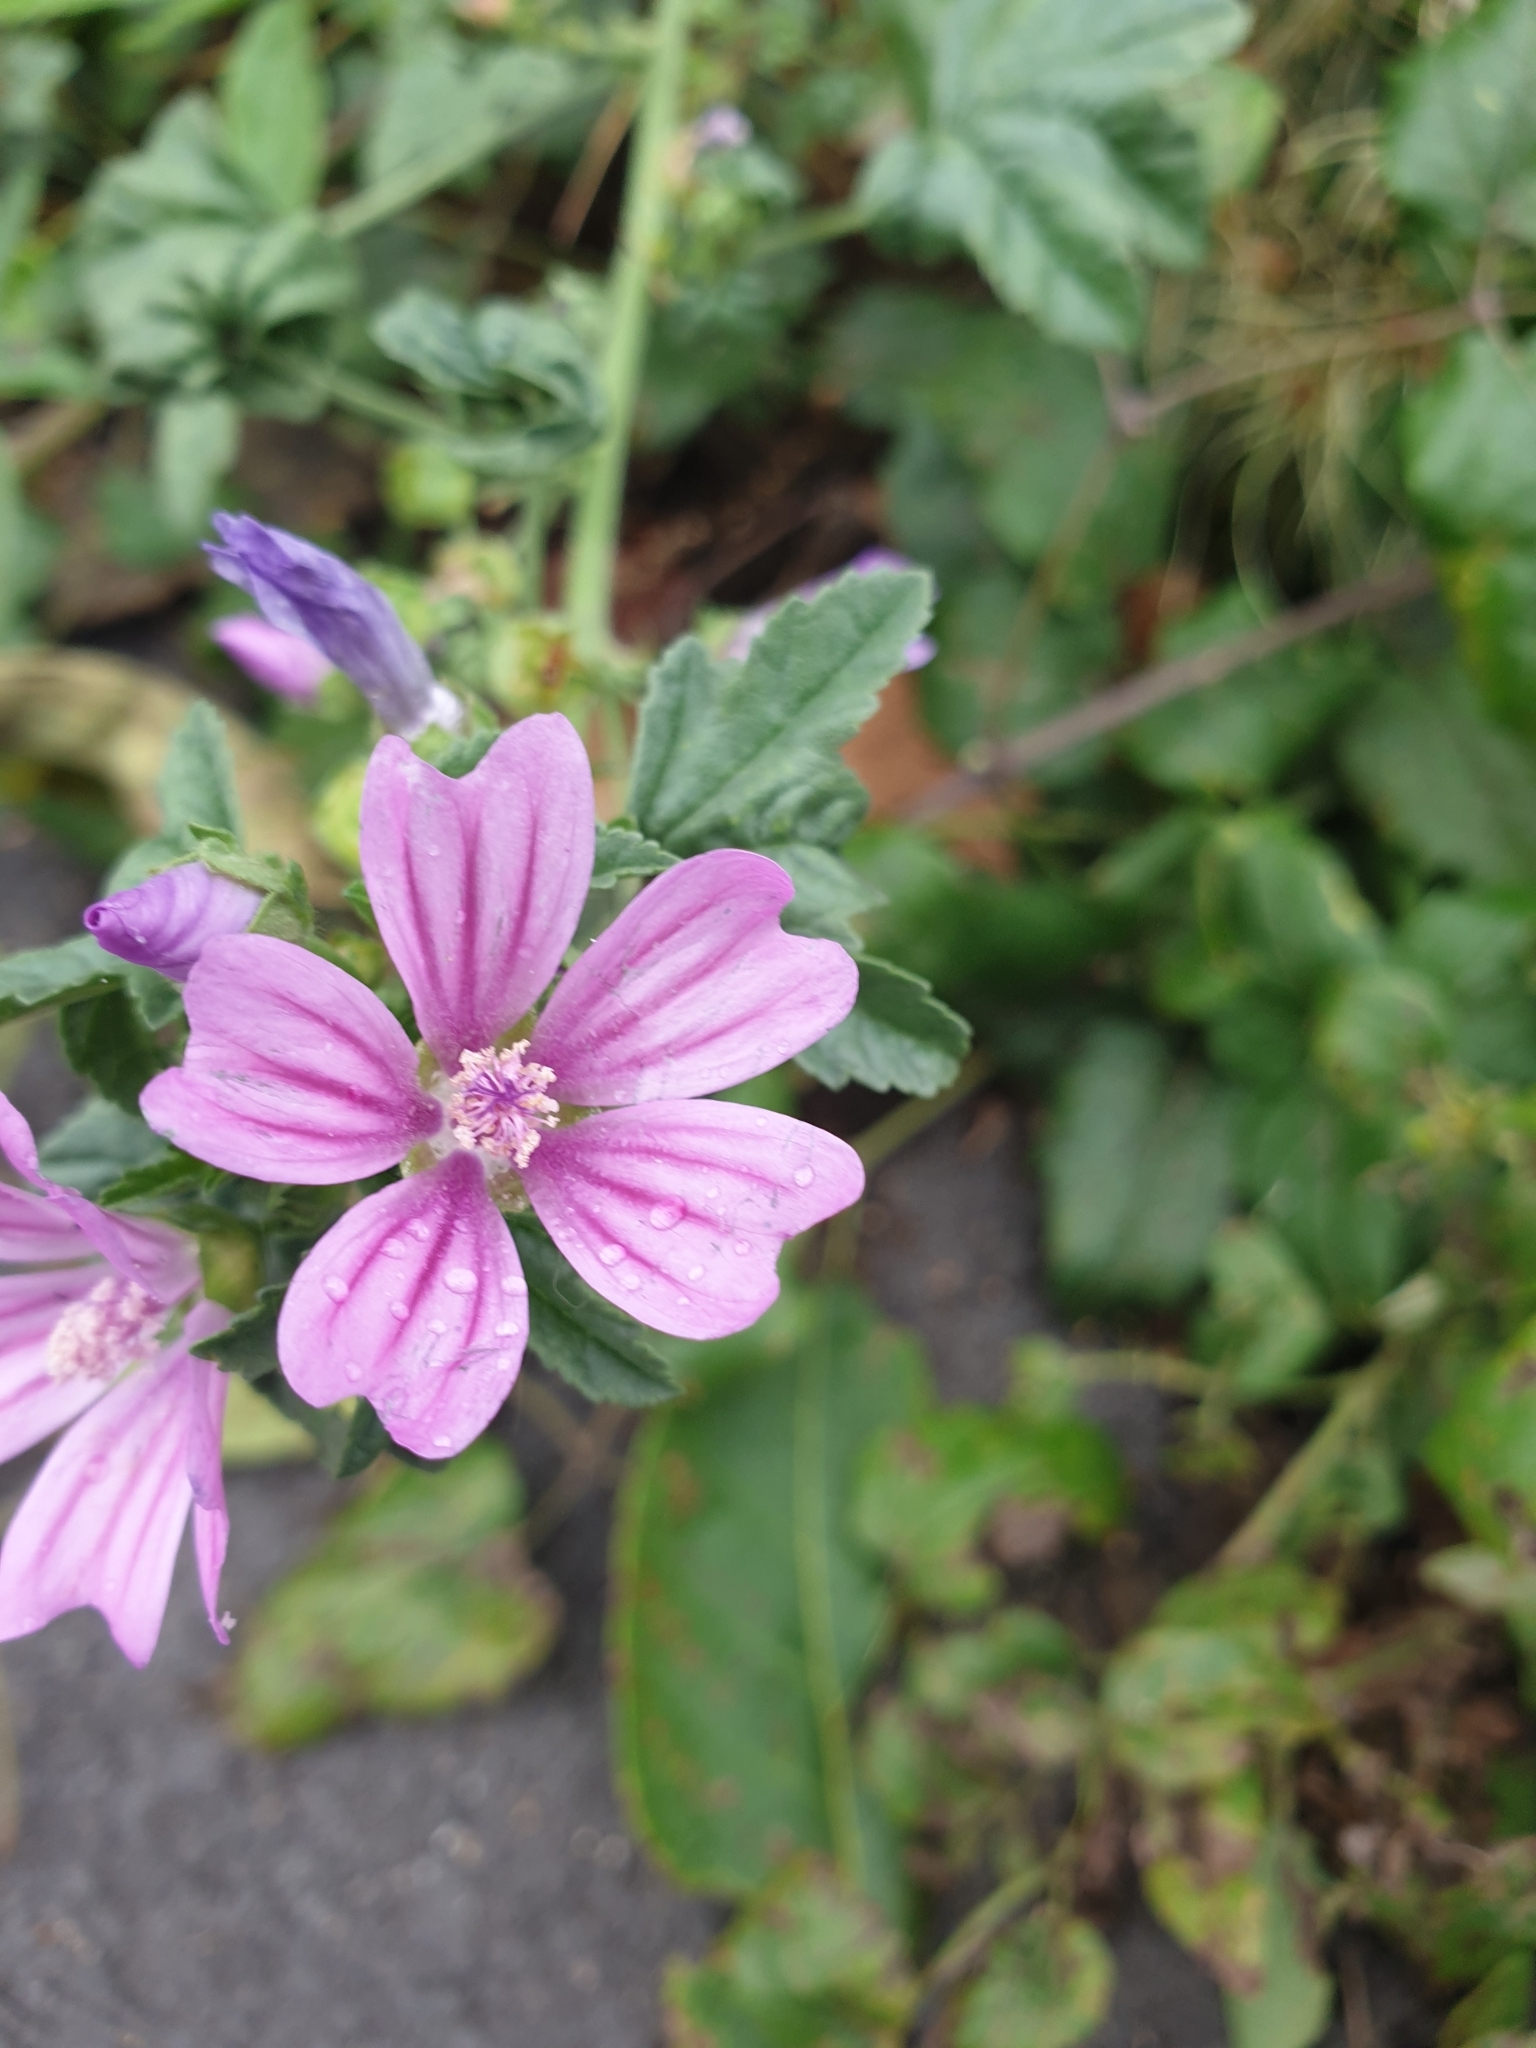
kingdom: Plantae
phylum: Tracheophyta
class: Magnoliopsida
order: Malvales
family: Malvaceae
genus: Malva
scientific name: Malva sylvestris
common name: Common mallow
